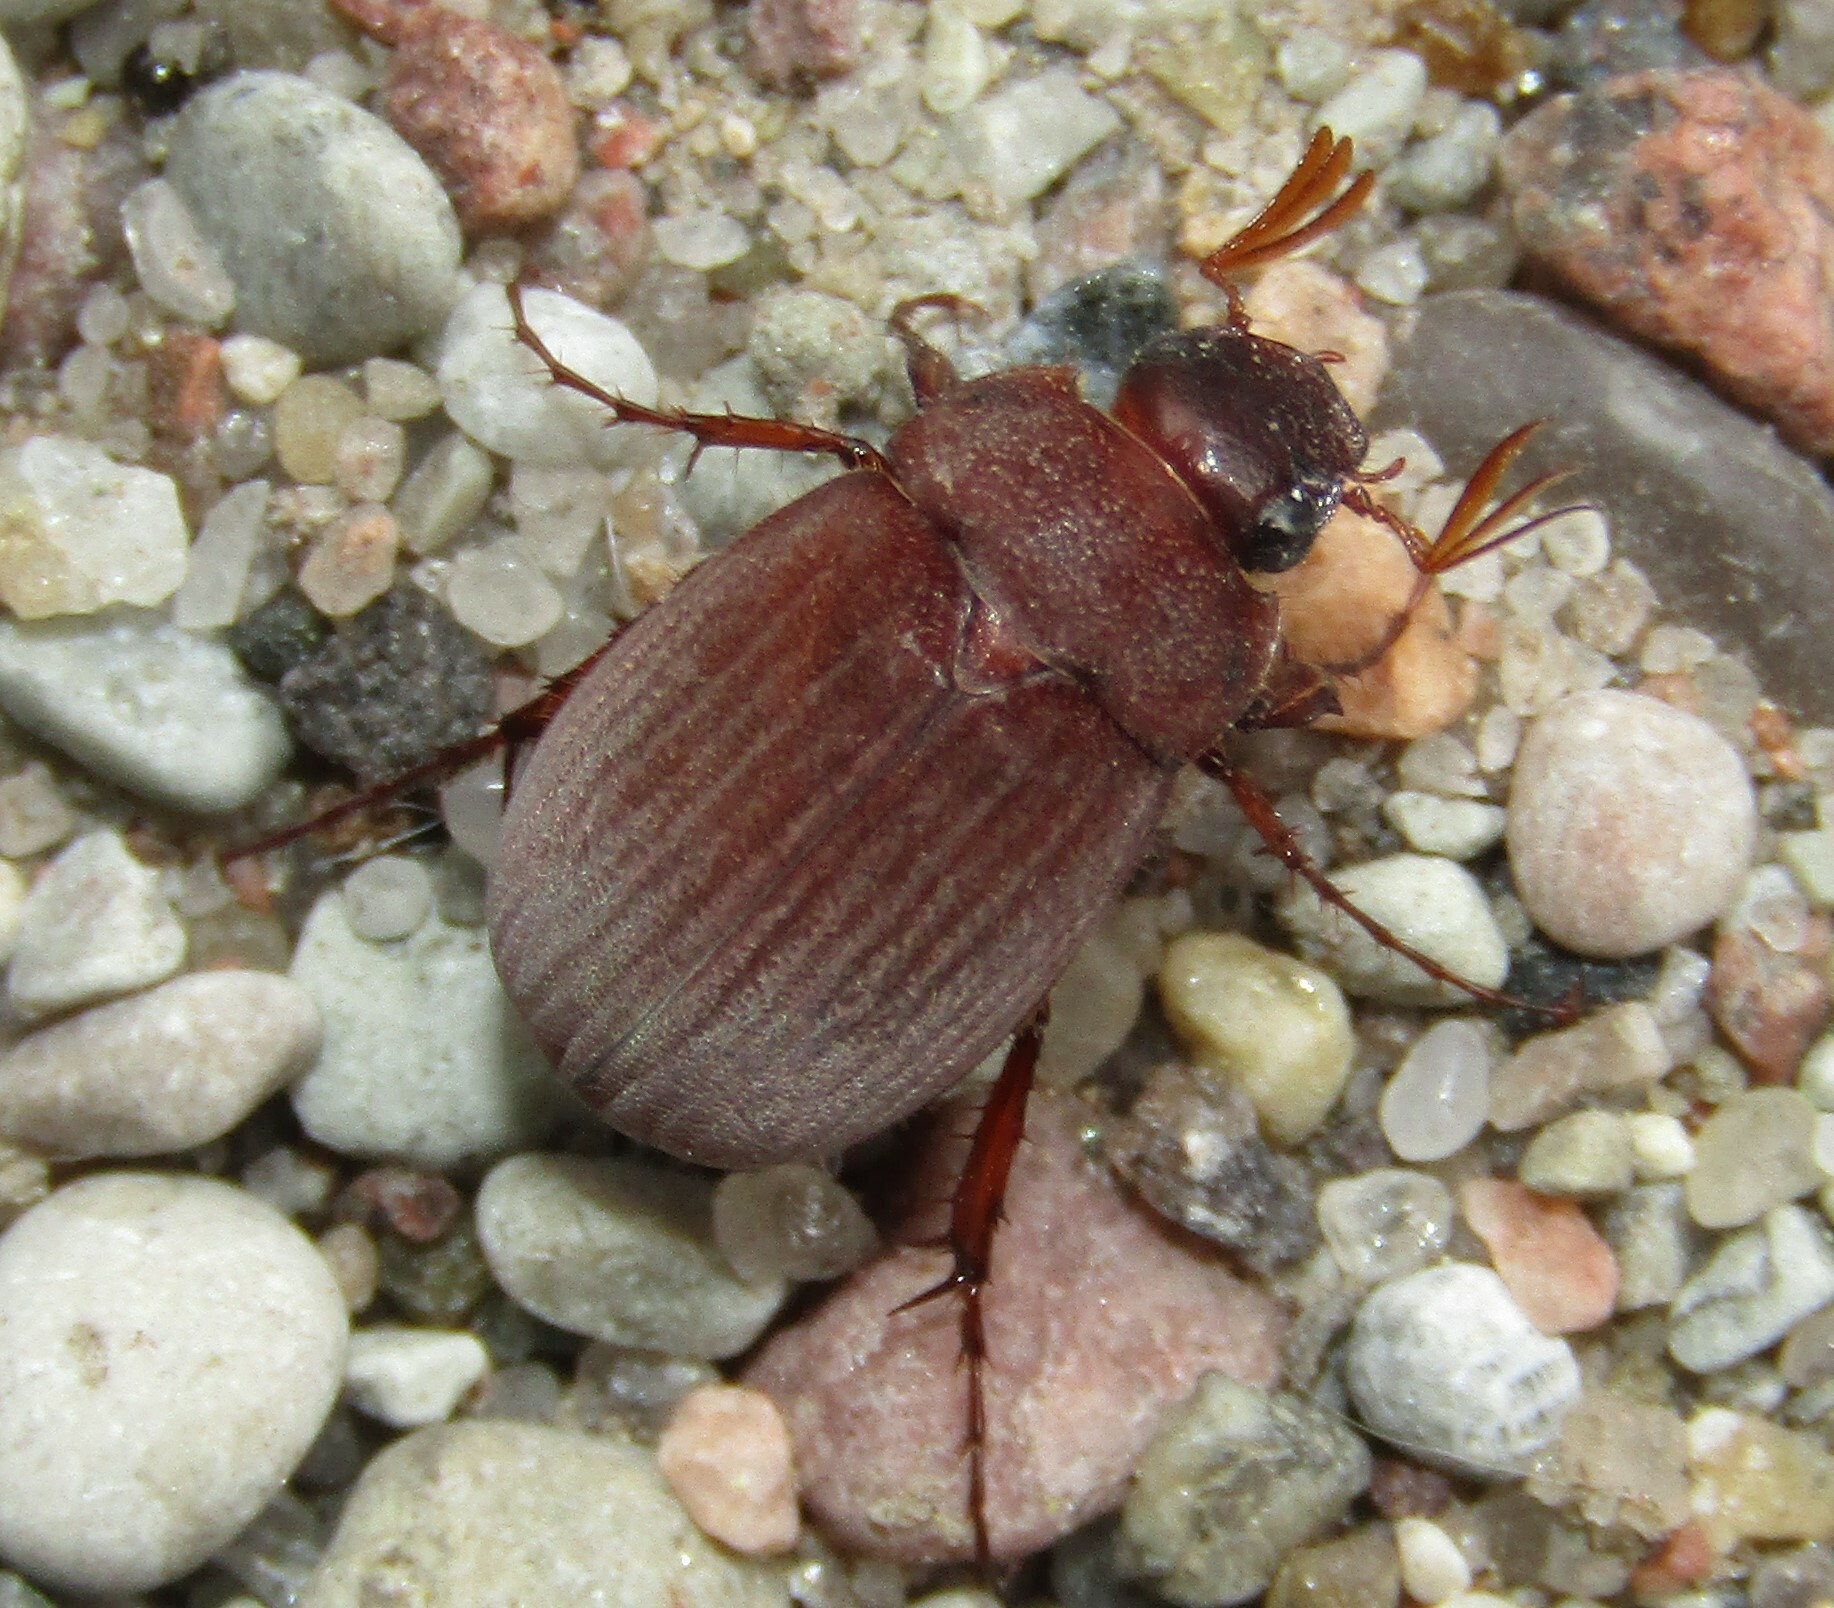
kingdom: Animalia
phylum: Arthropoda
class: Insecta
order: Coleoptera
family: Scarabaeidae
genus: Maladera
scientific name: Maladera holosericea
